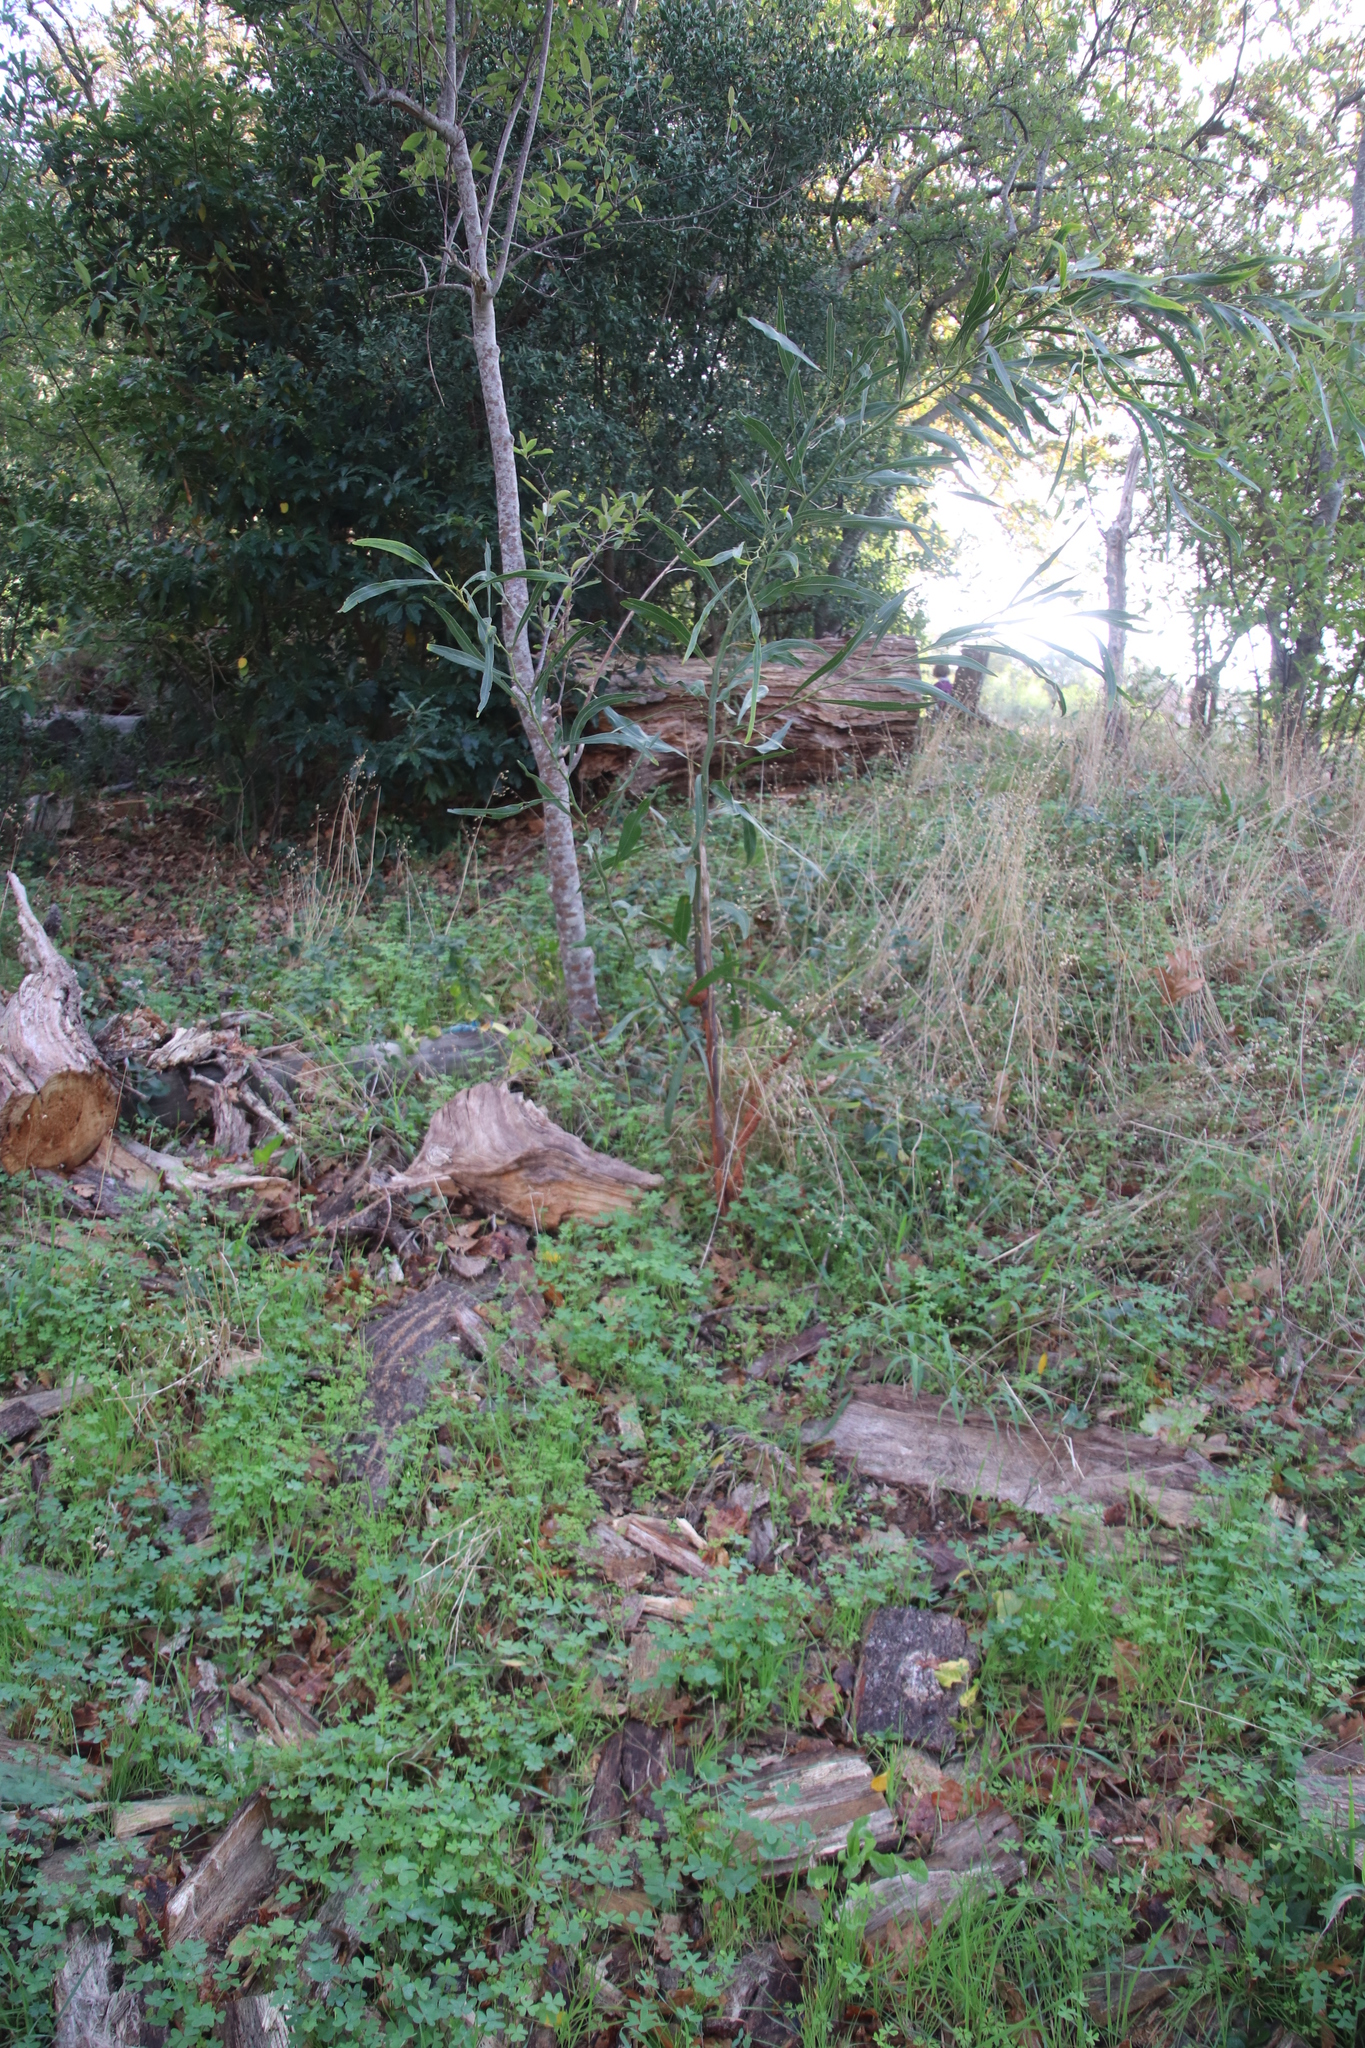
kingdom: Plantae
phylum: Tracheophyta
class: Magnoliopsida
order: Gentianales
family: Apocynaceae
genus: Vinca
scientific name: Vinca major
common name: Greater periwinkle
